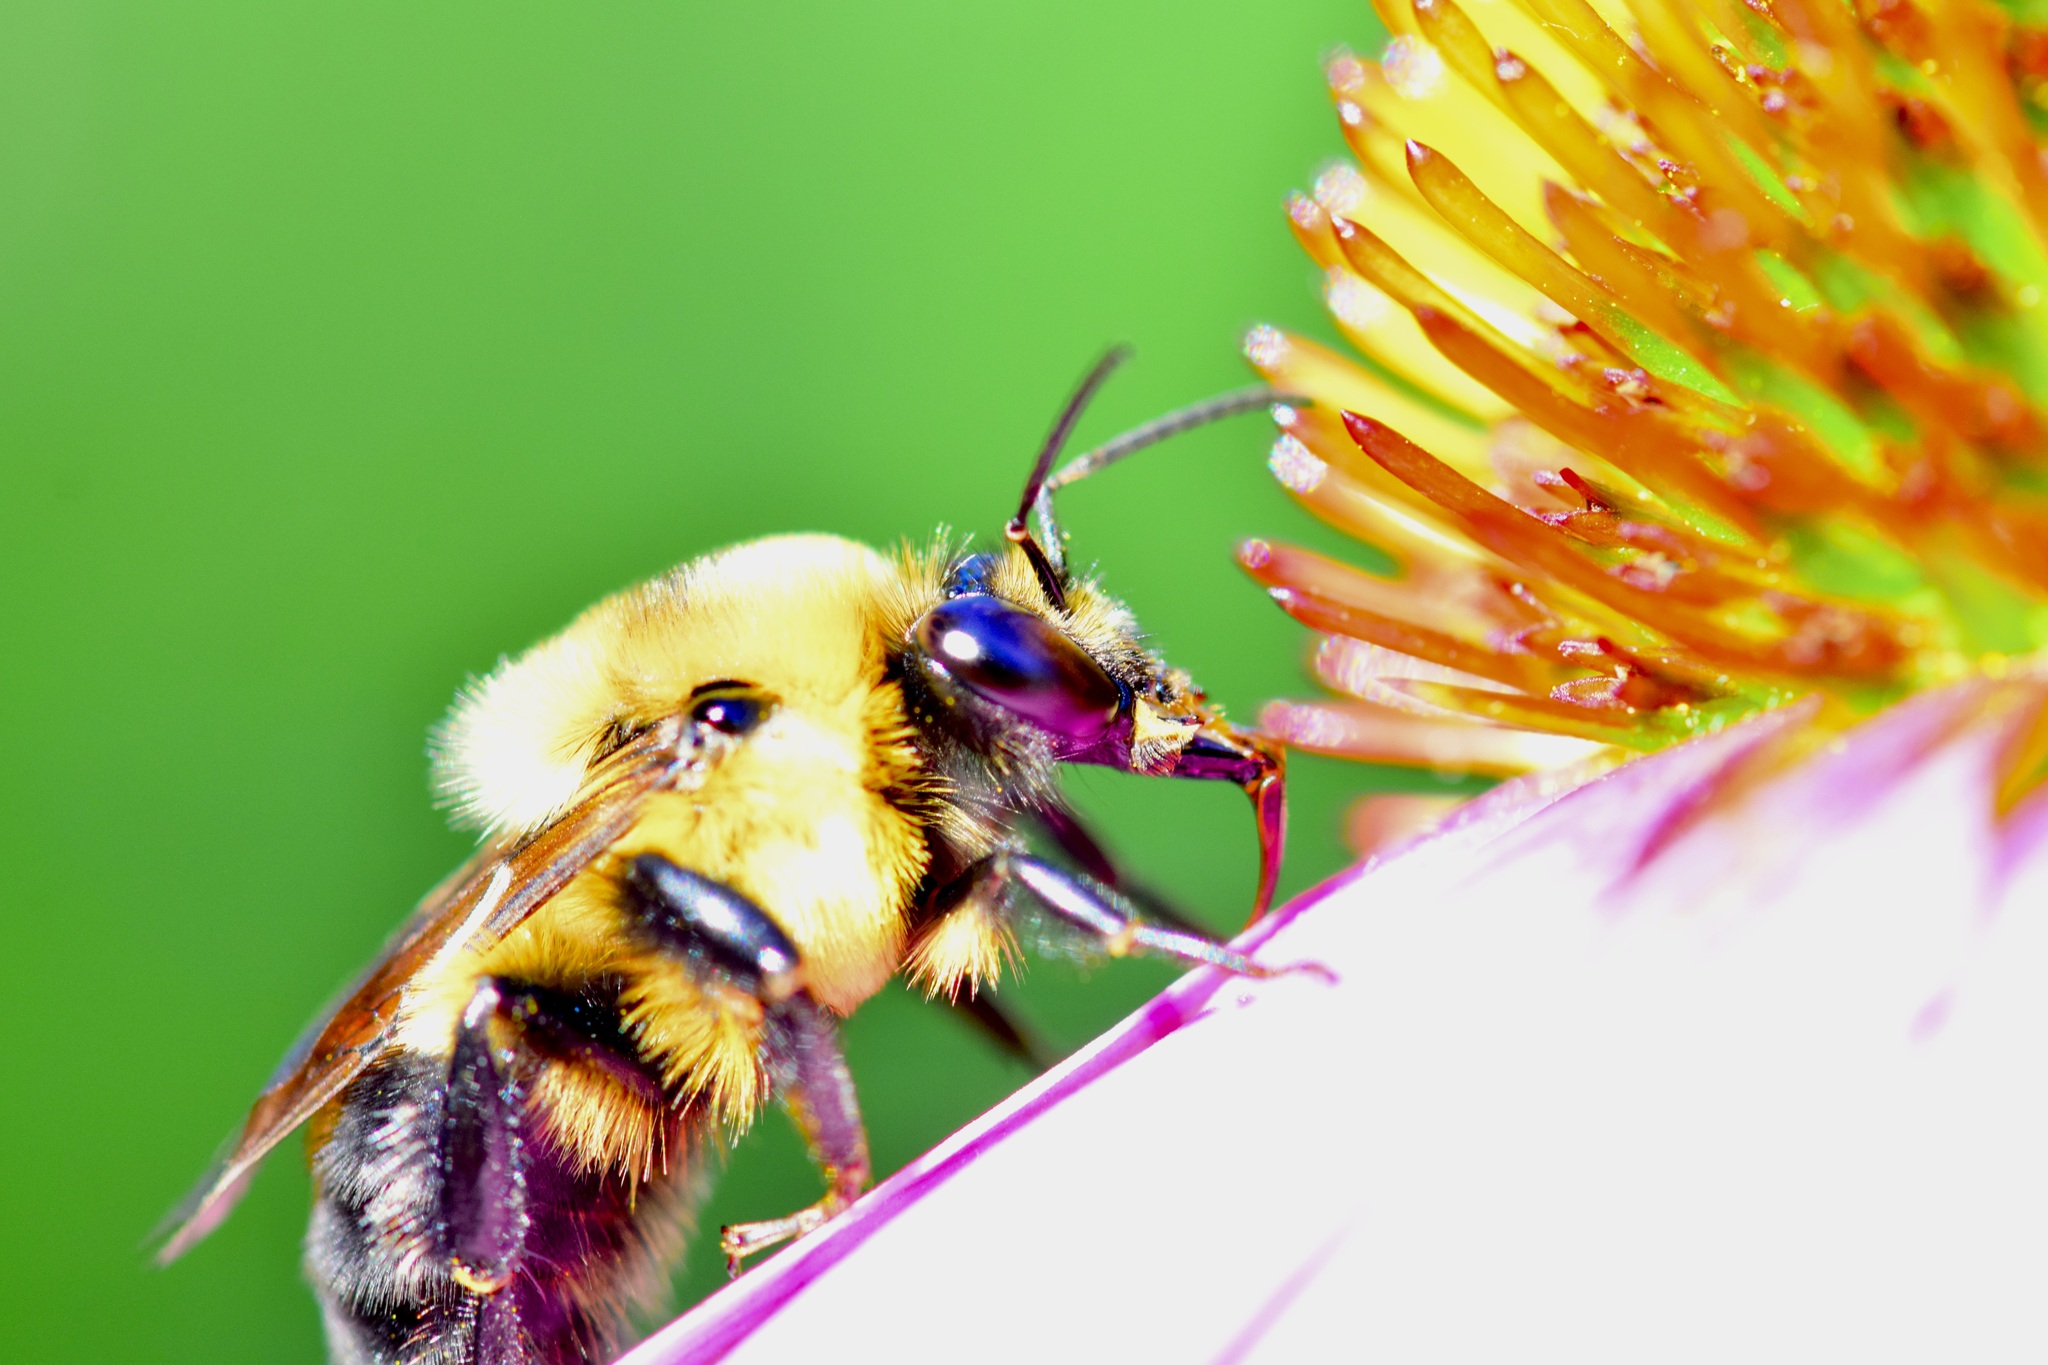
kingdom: Animalia
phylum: Arthropoda
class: Insecta
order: Hymenoptera
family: Apidae
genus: Bombus
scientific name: Bombus griseocollis
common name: Brown-belted bumble bee
